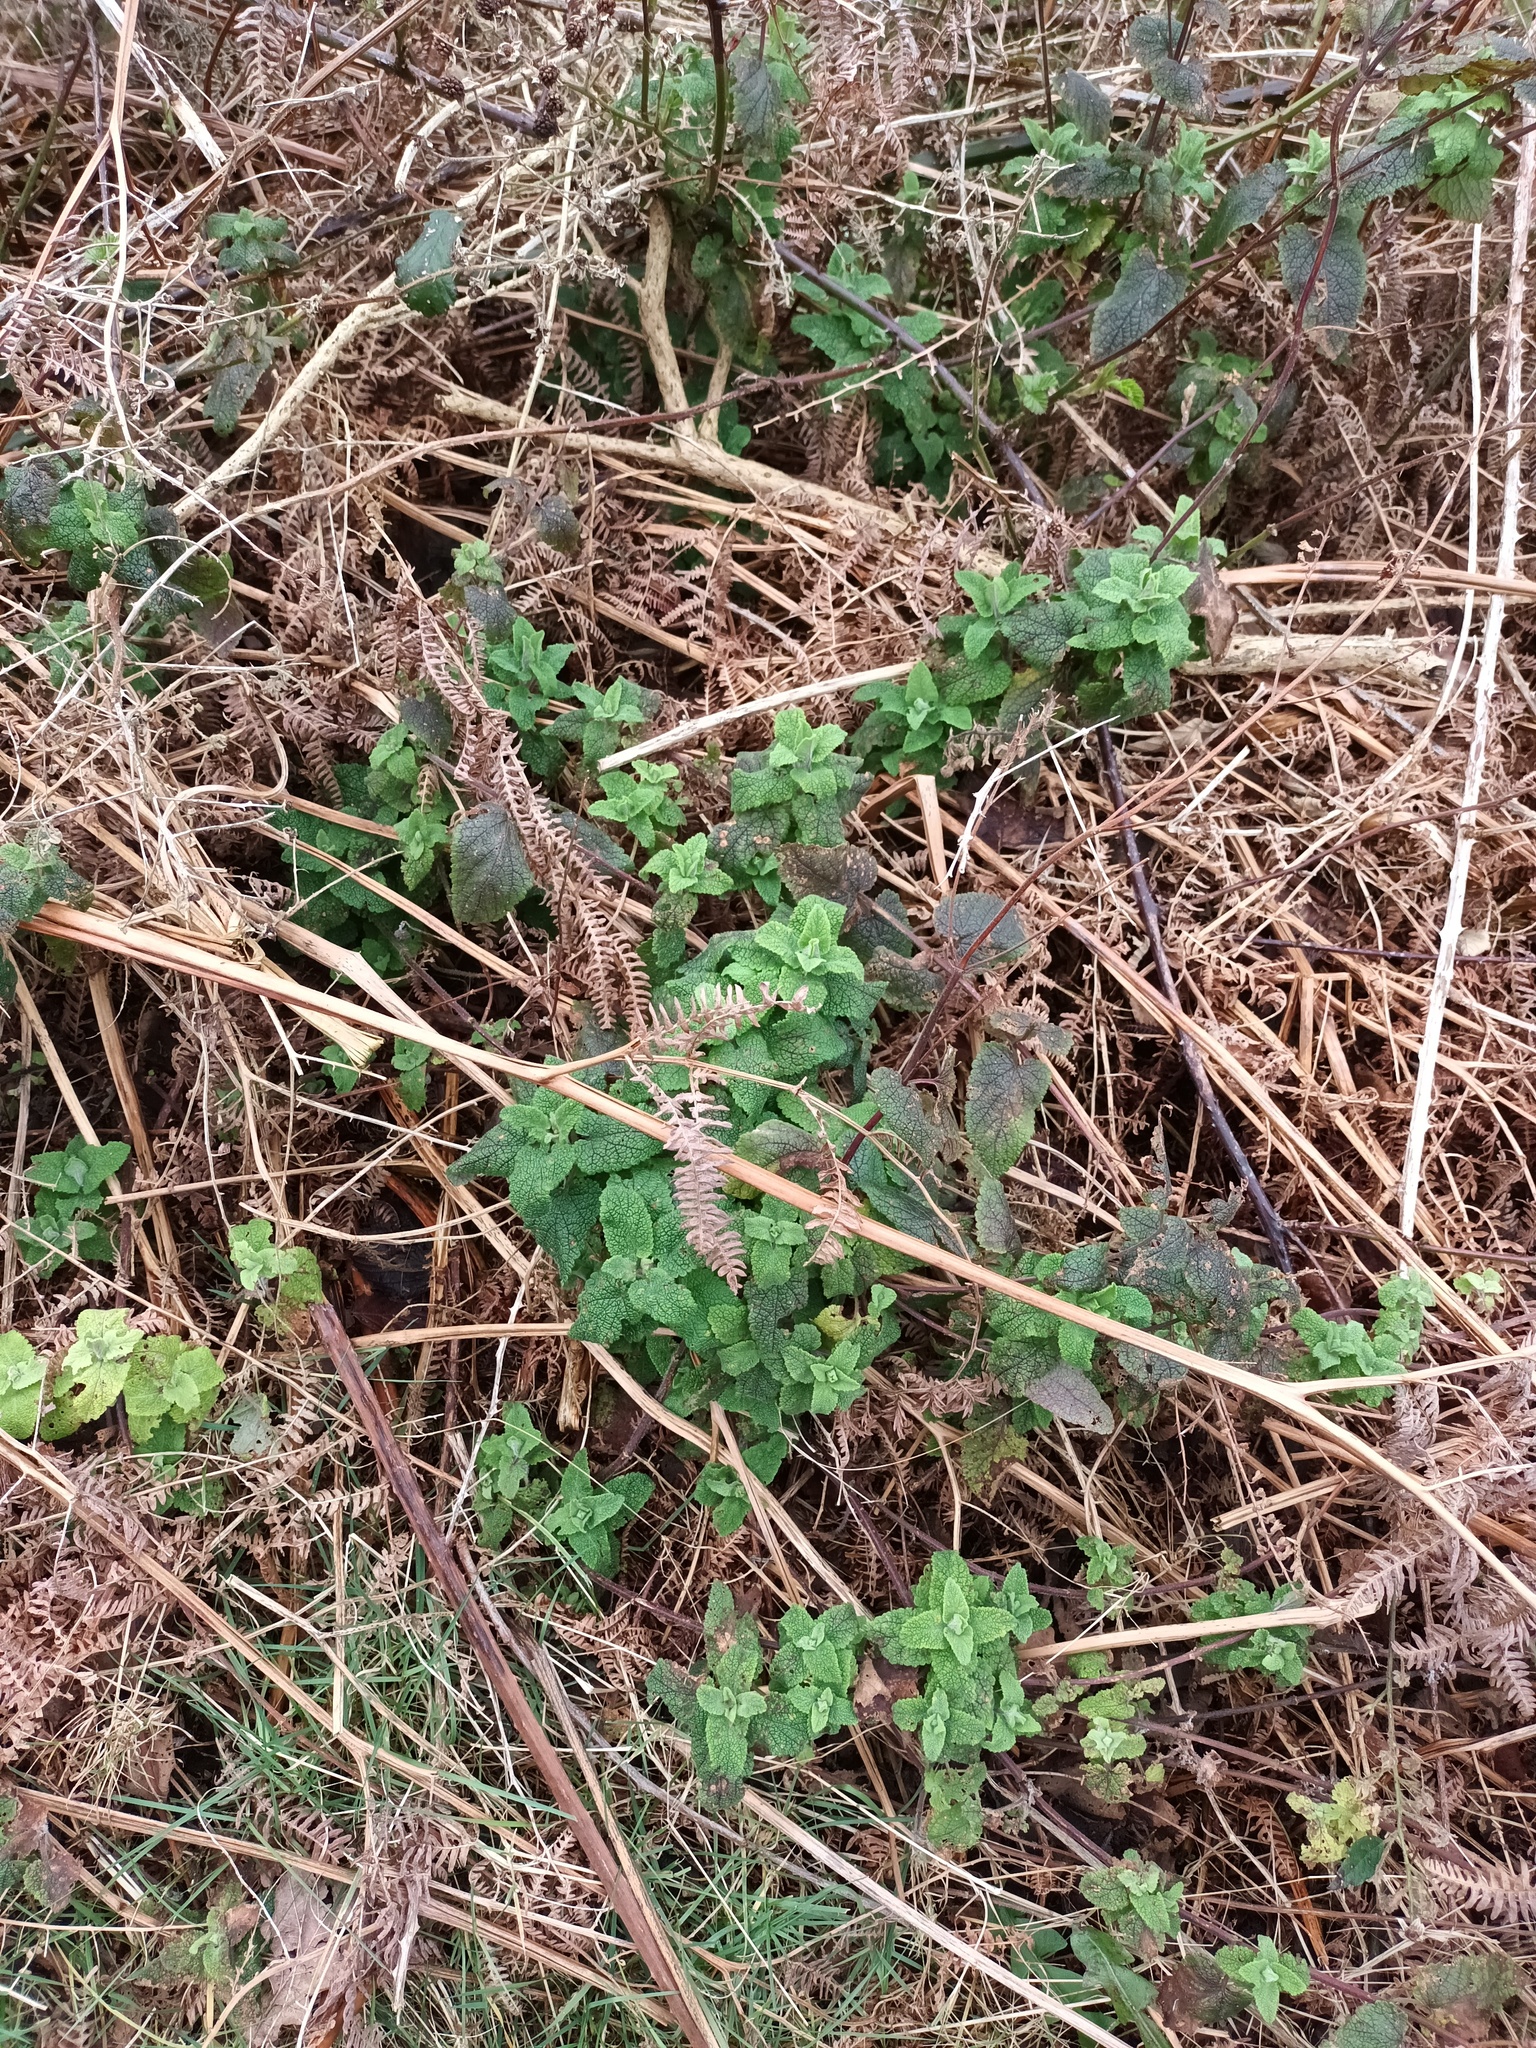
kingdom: Plantae
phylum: Tracheophyta
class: Magnoliopsida
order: Lamiales
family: Lamiaceae
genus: Teucrium
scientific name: Teucrium scorodonia
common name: Woodland germander
